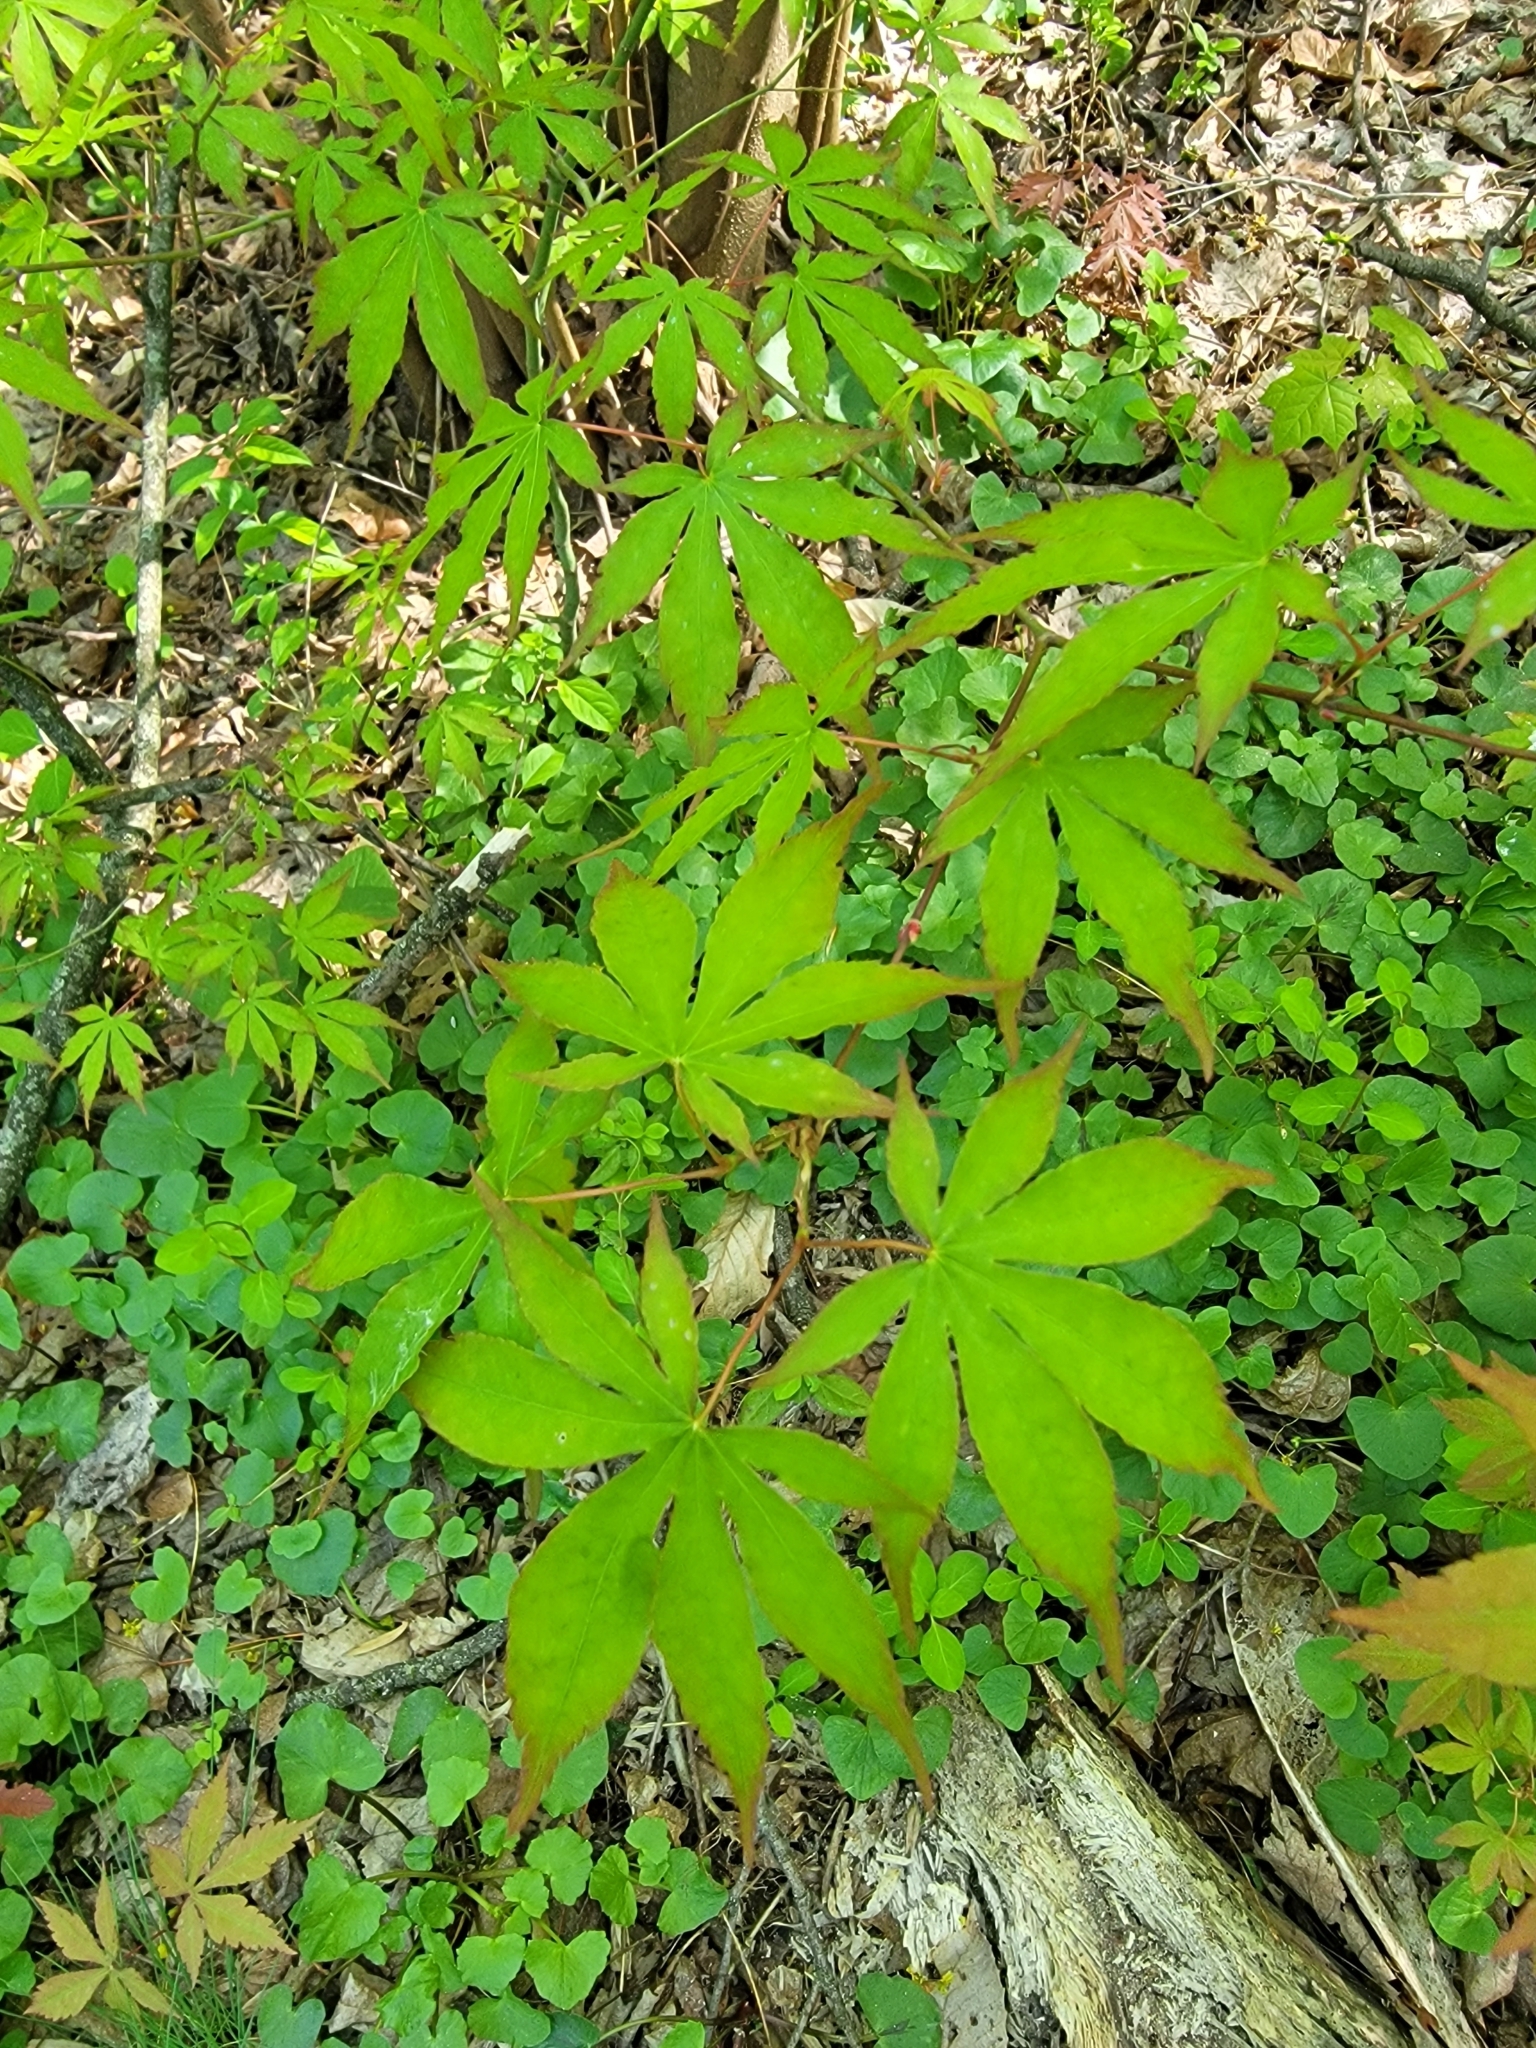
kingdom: Plantae
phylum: Tracheophyta
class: Magnoliopsida
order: Sapindales
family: Sapindaceae
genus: Acer
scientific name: Acer palmatum
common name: Japanese maple
